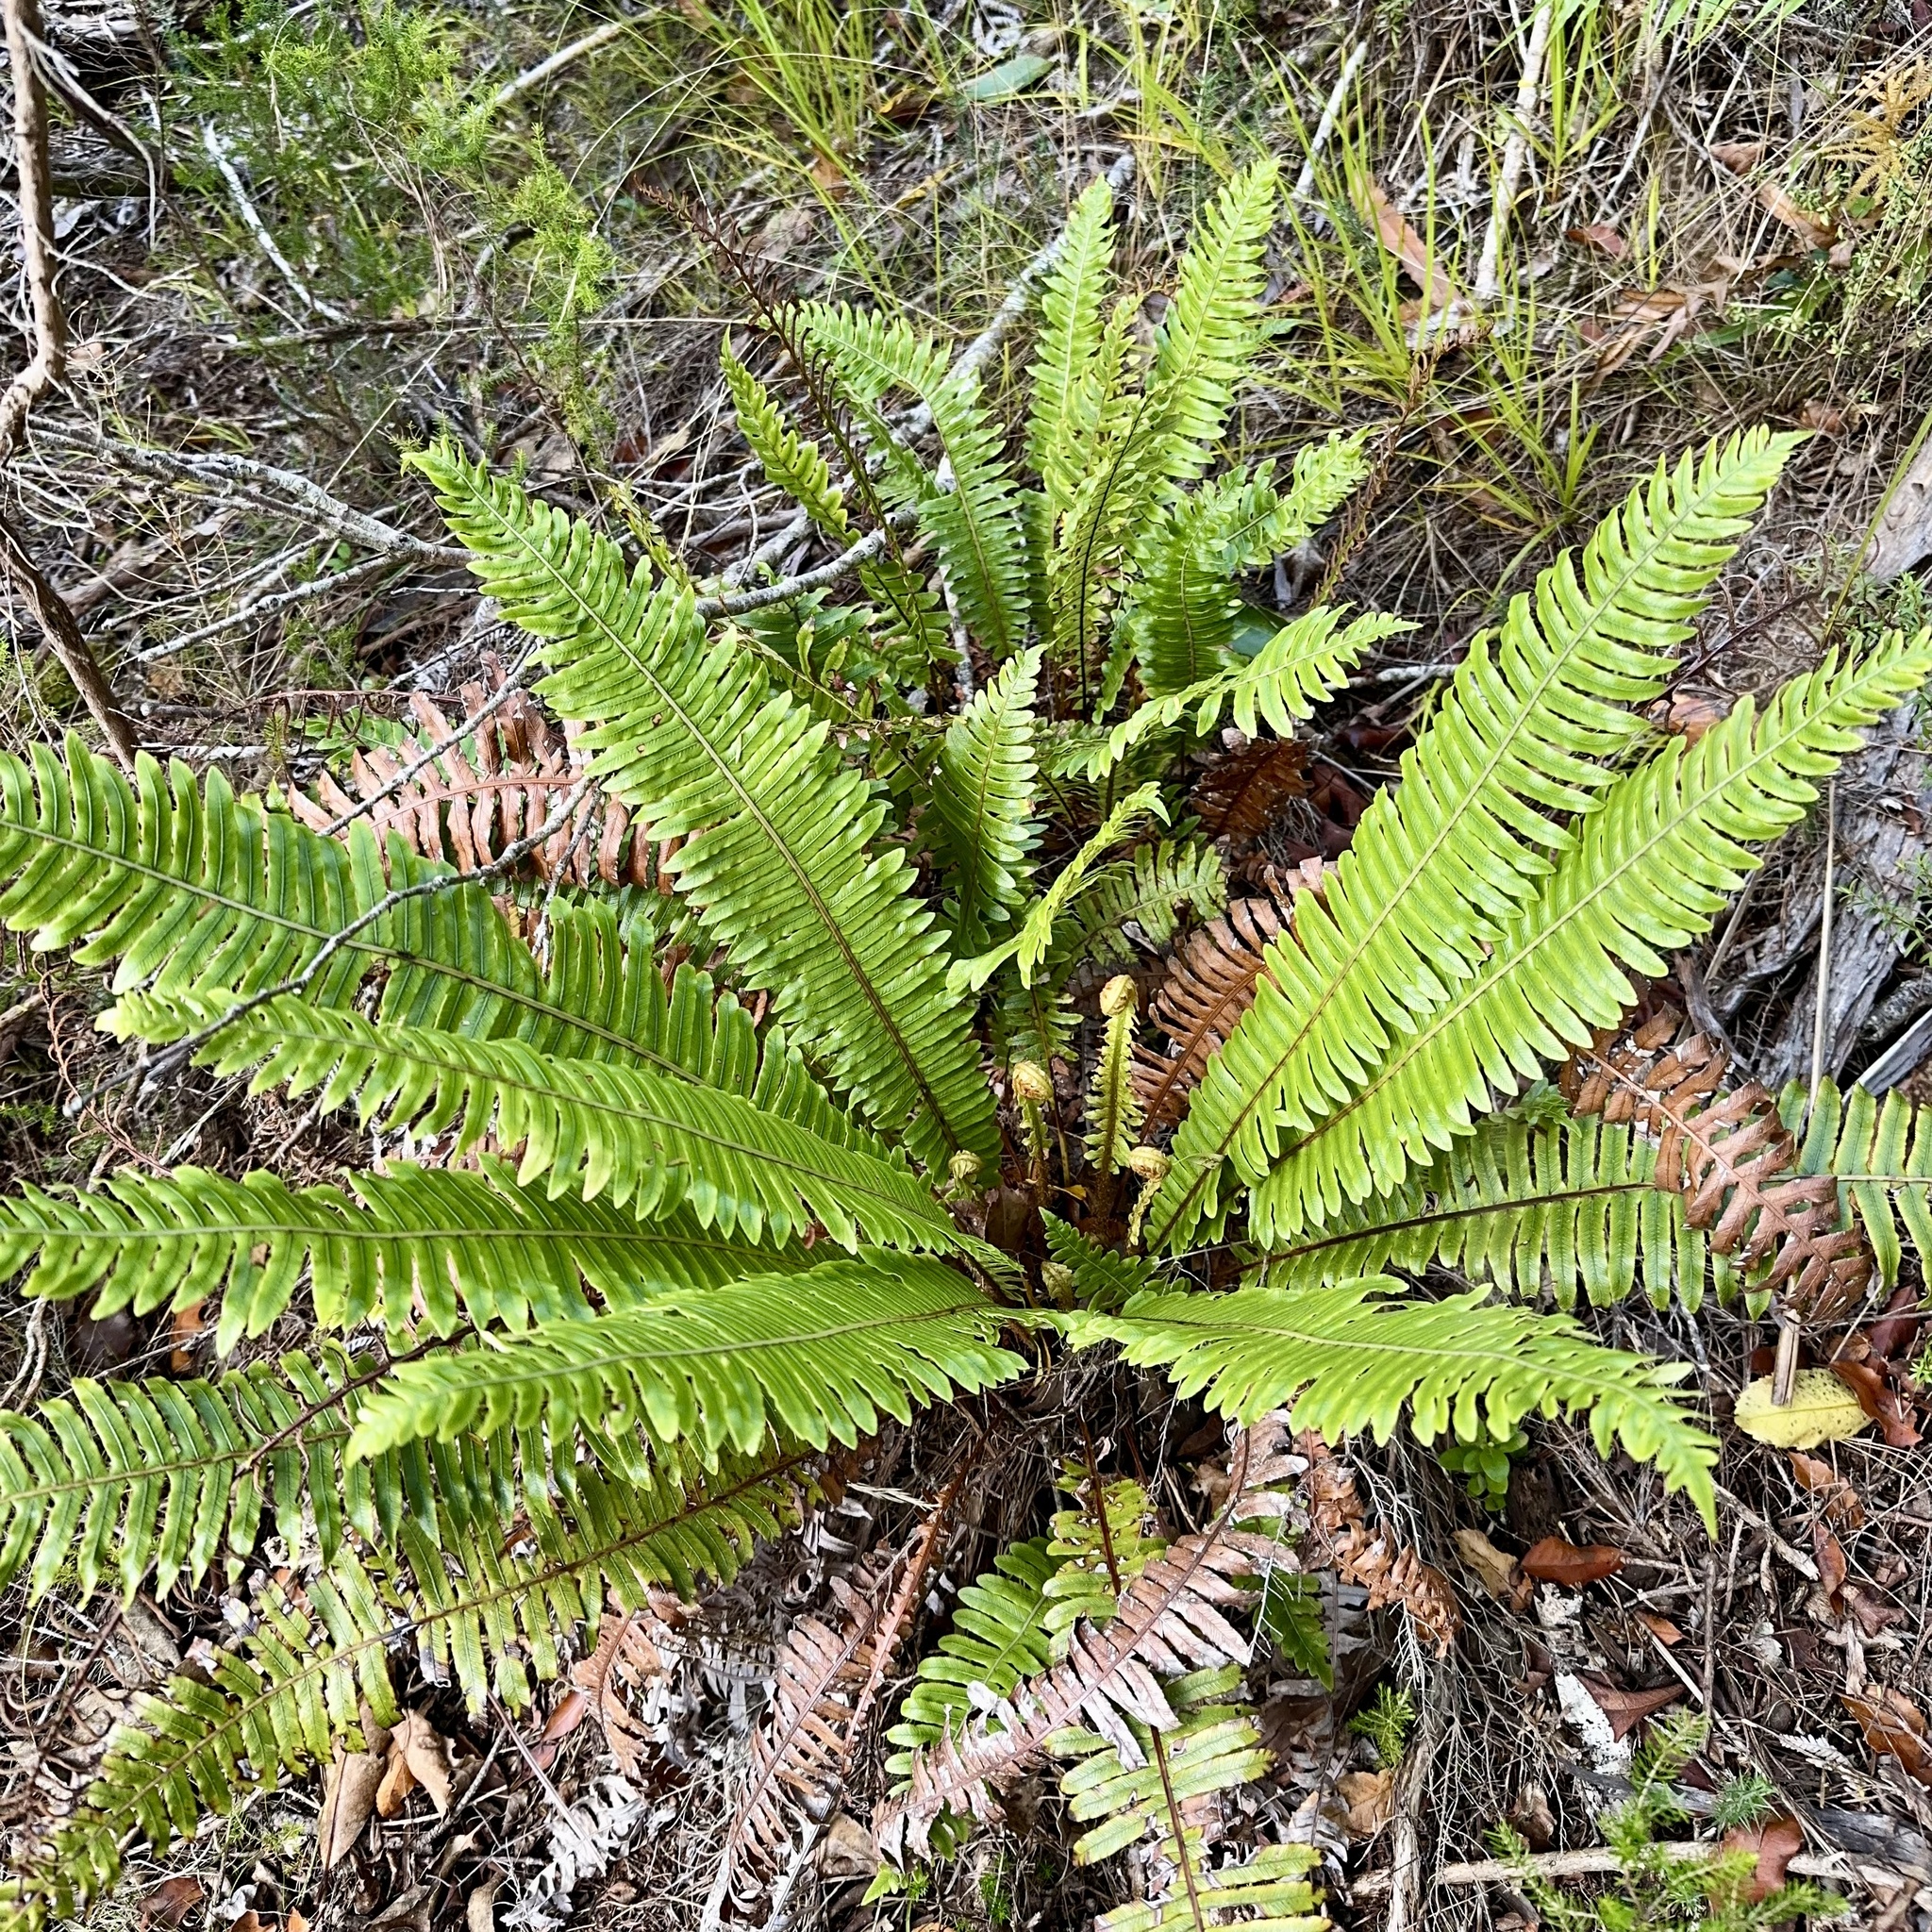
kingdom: Plantae
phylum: Tracheophyta
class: Polypodiopsida
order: Polypodiales
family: Blechnaceae
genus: Lomaria
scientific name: Lomaria discolor
